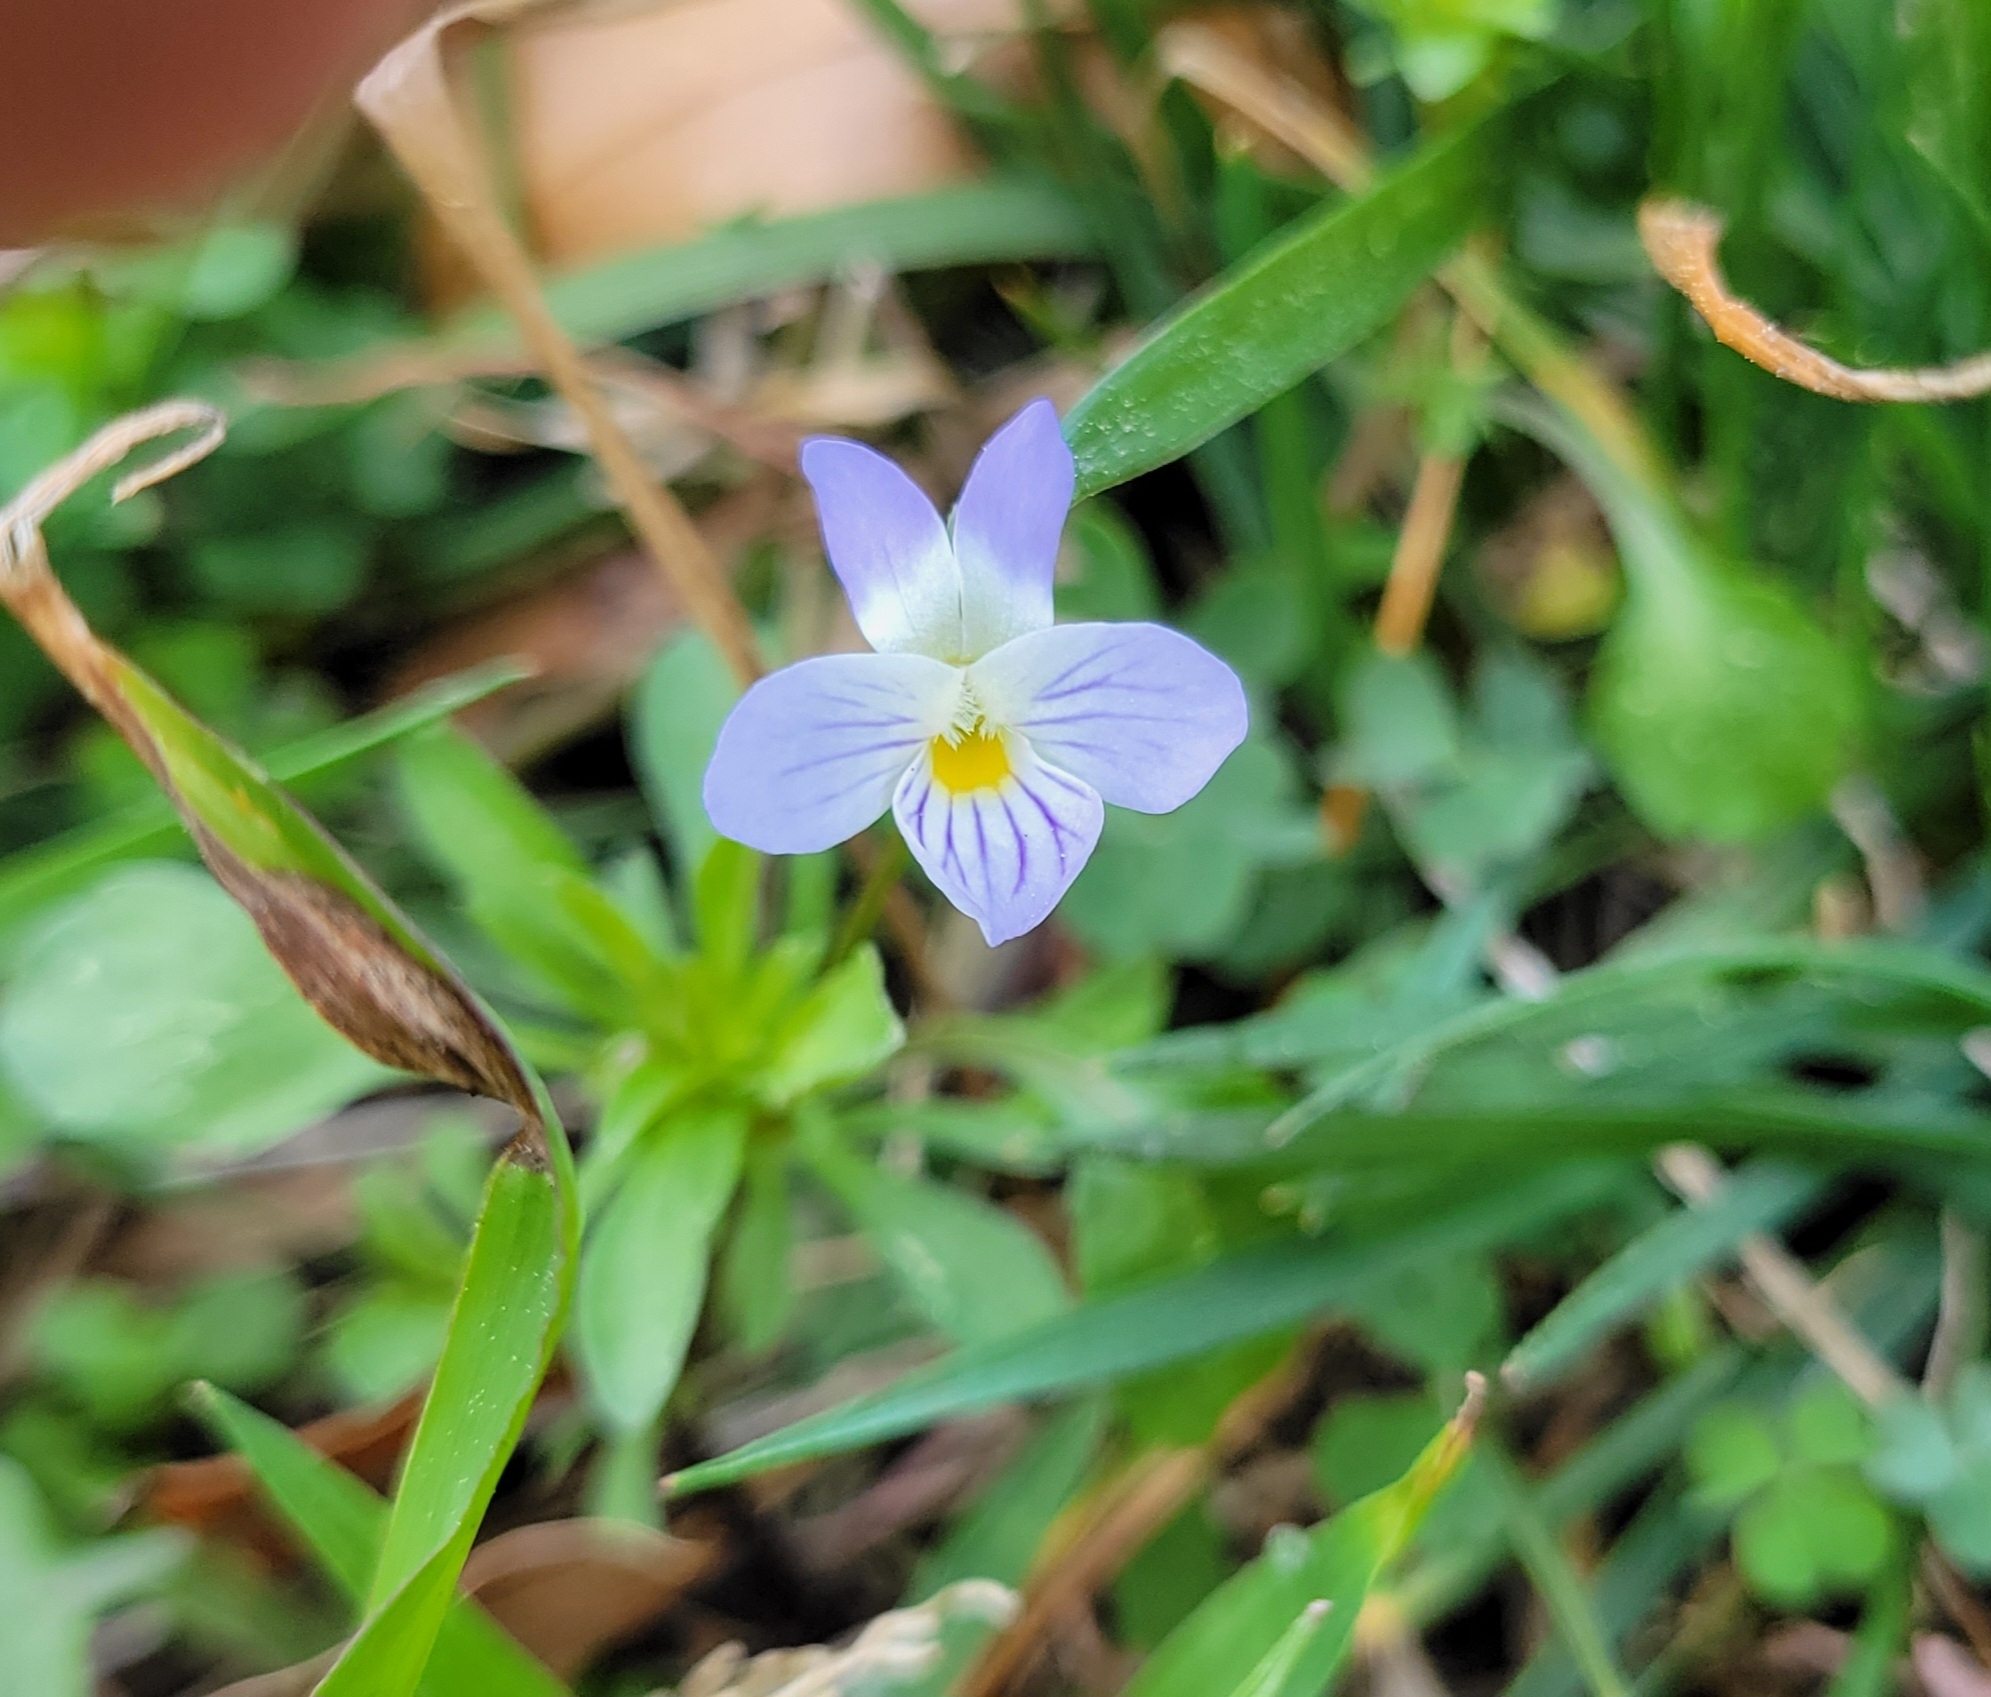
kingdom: Plantae
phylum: Tracheophyta
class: Magnoliopsida
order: Malpighiales
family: Violaceae
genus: Viola
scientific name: Viola rafinesquei
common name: American field pansy
